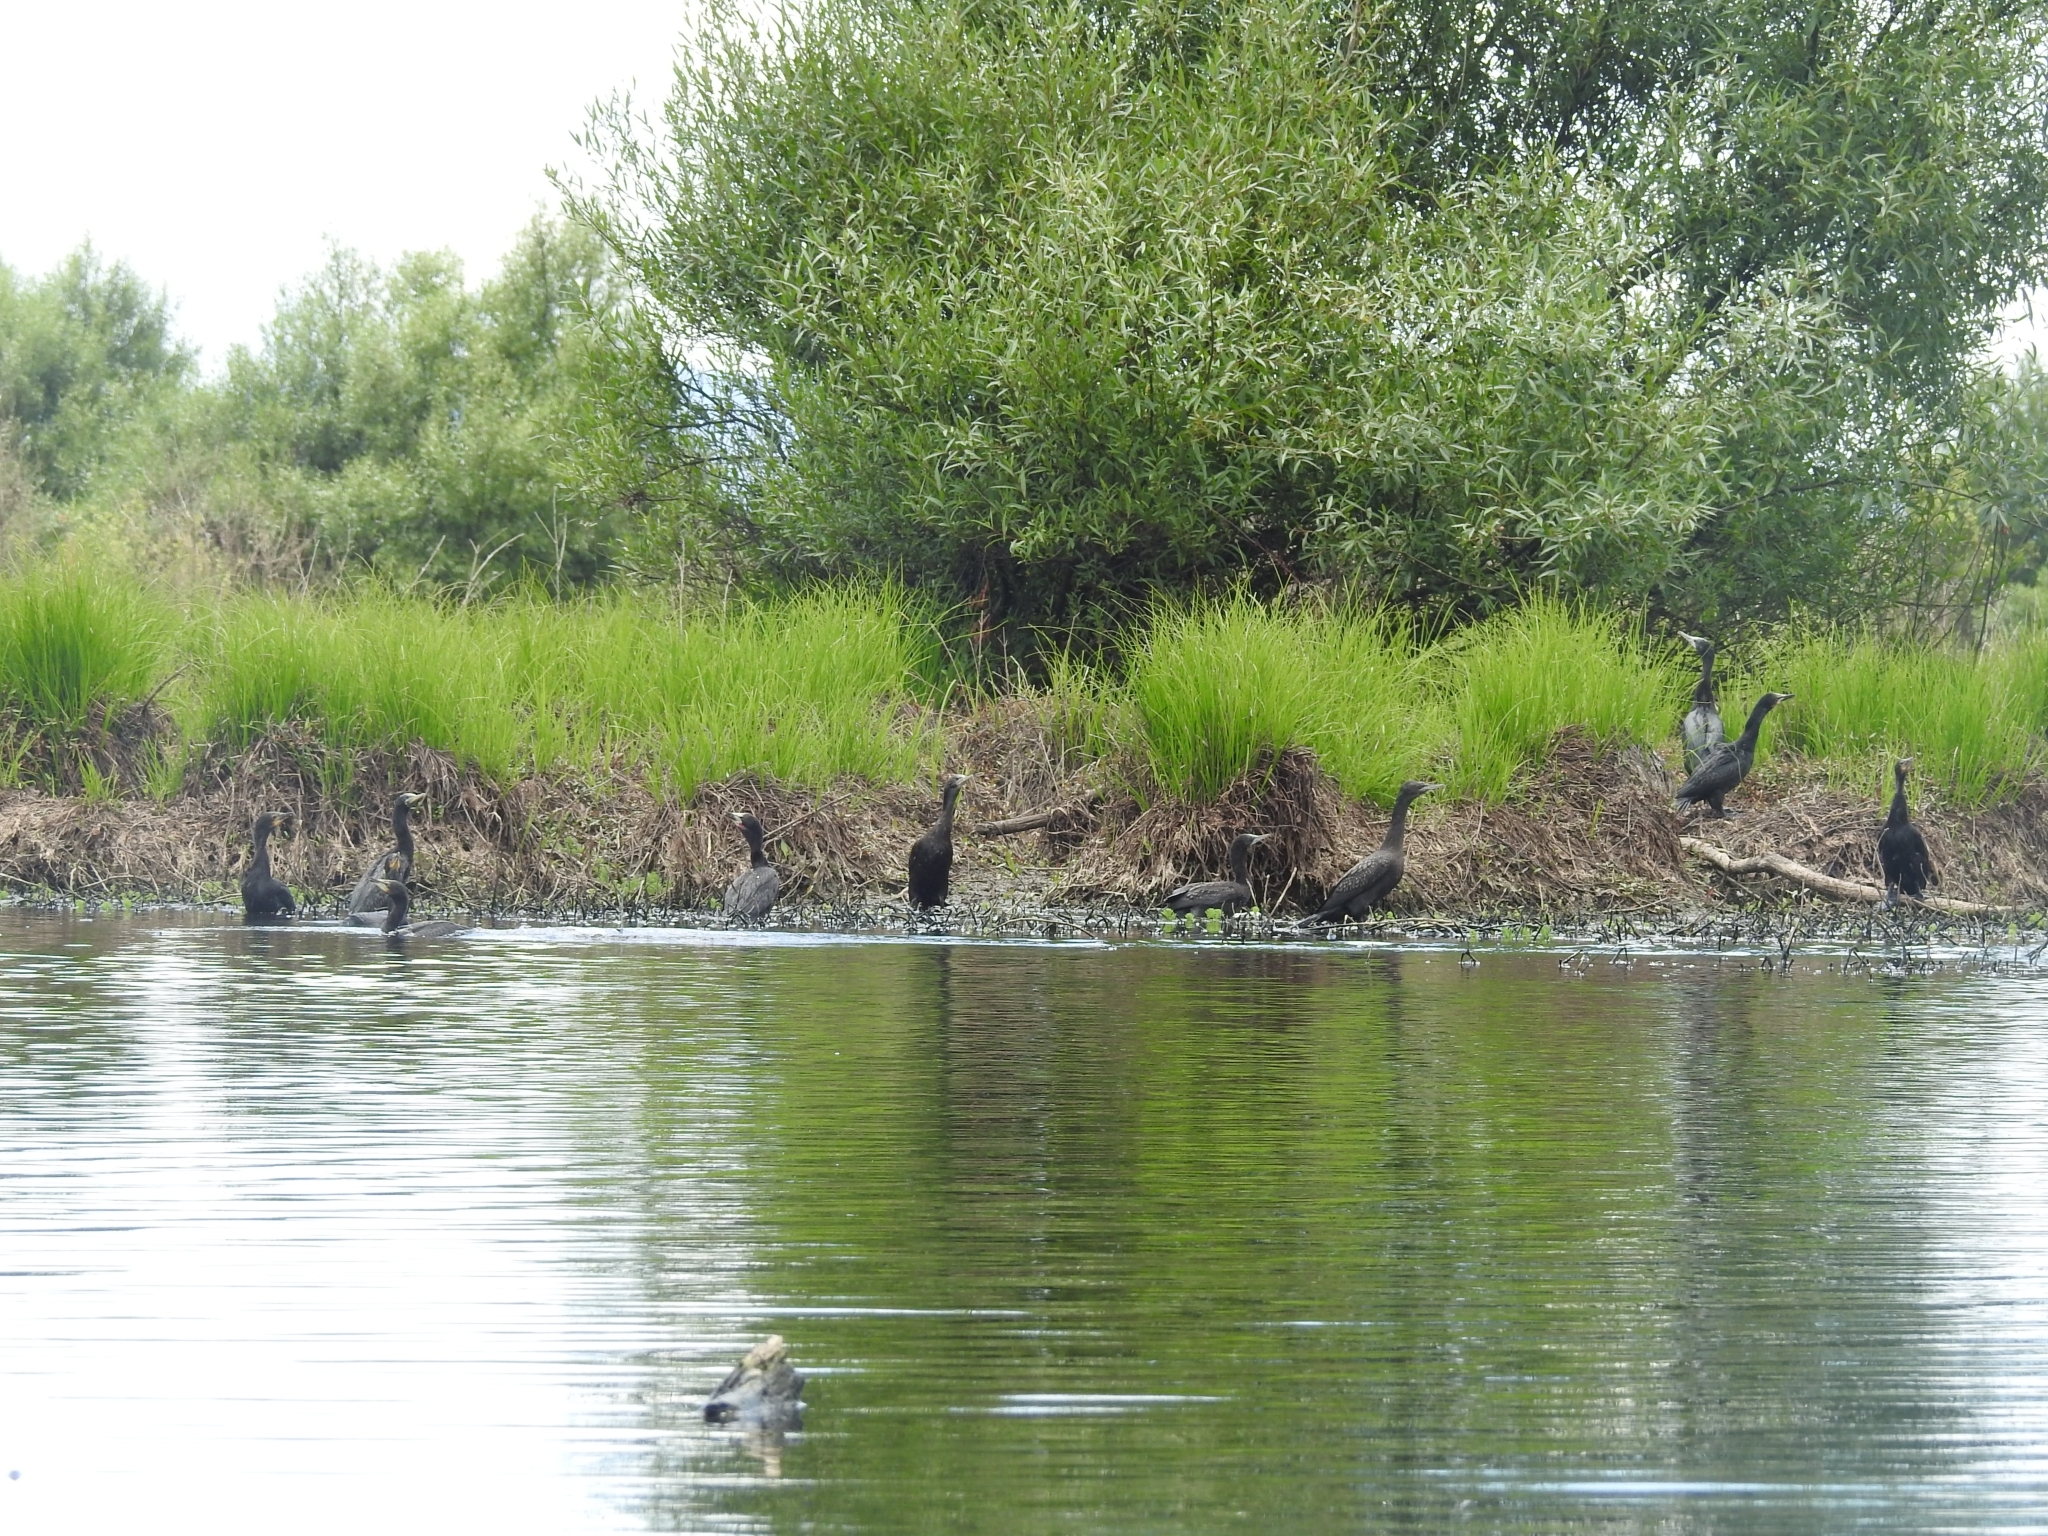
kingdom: Animalia
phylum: Chordata
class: Aves
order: Suliformes
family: Phalacrocoracidae
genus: Phalacrocorax
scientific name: Phalacrocorax sulcirostris
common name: Little black cormorant
